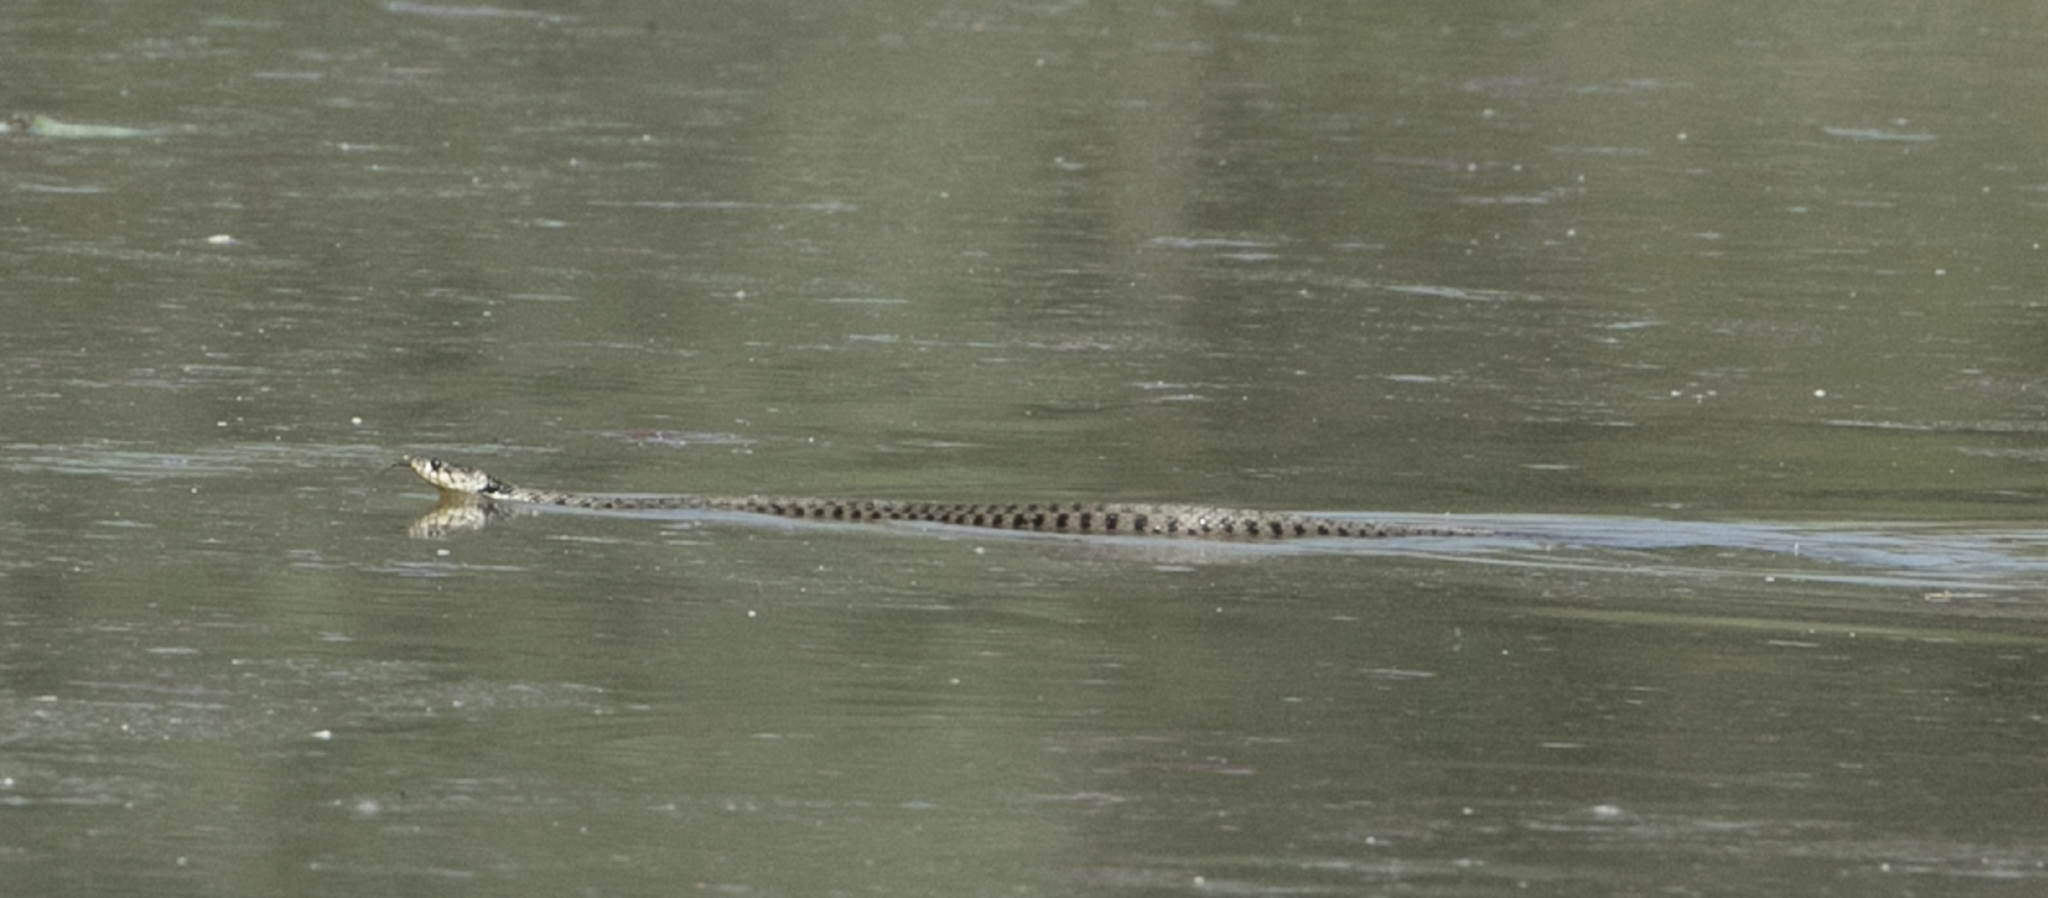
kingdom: Animalia
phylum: Chordata
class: Squamata
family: Colubridae
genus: Natrix
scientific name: Natrix helvetica
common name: Banded grass snake
